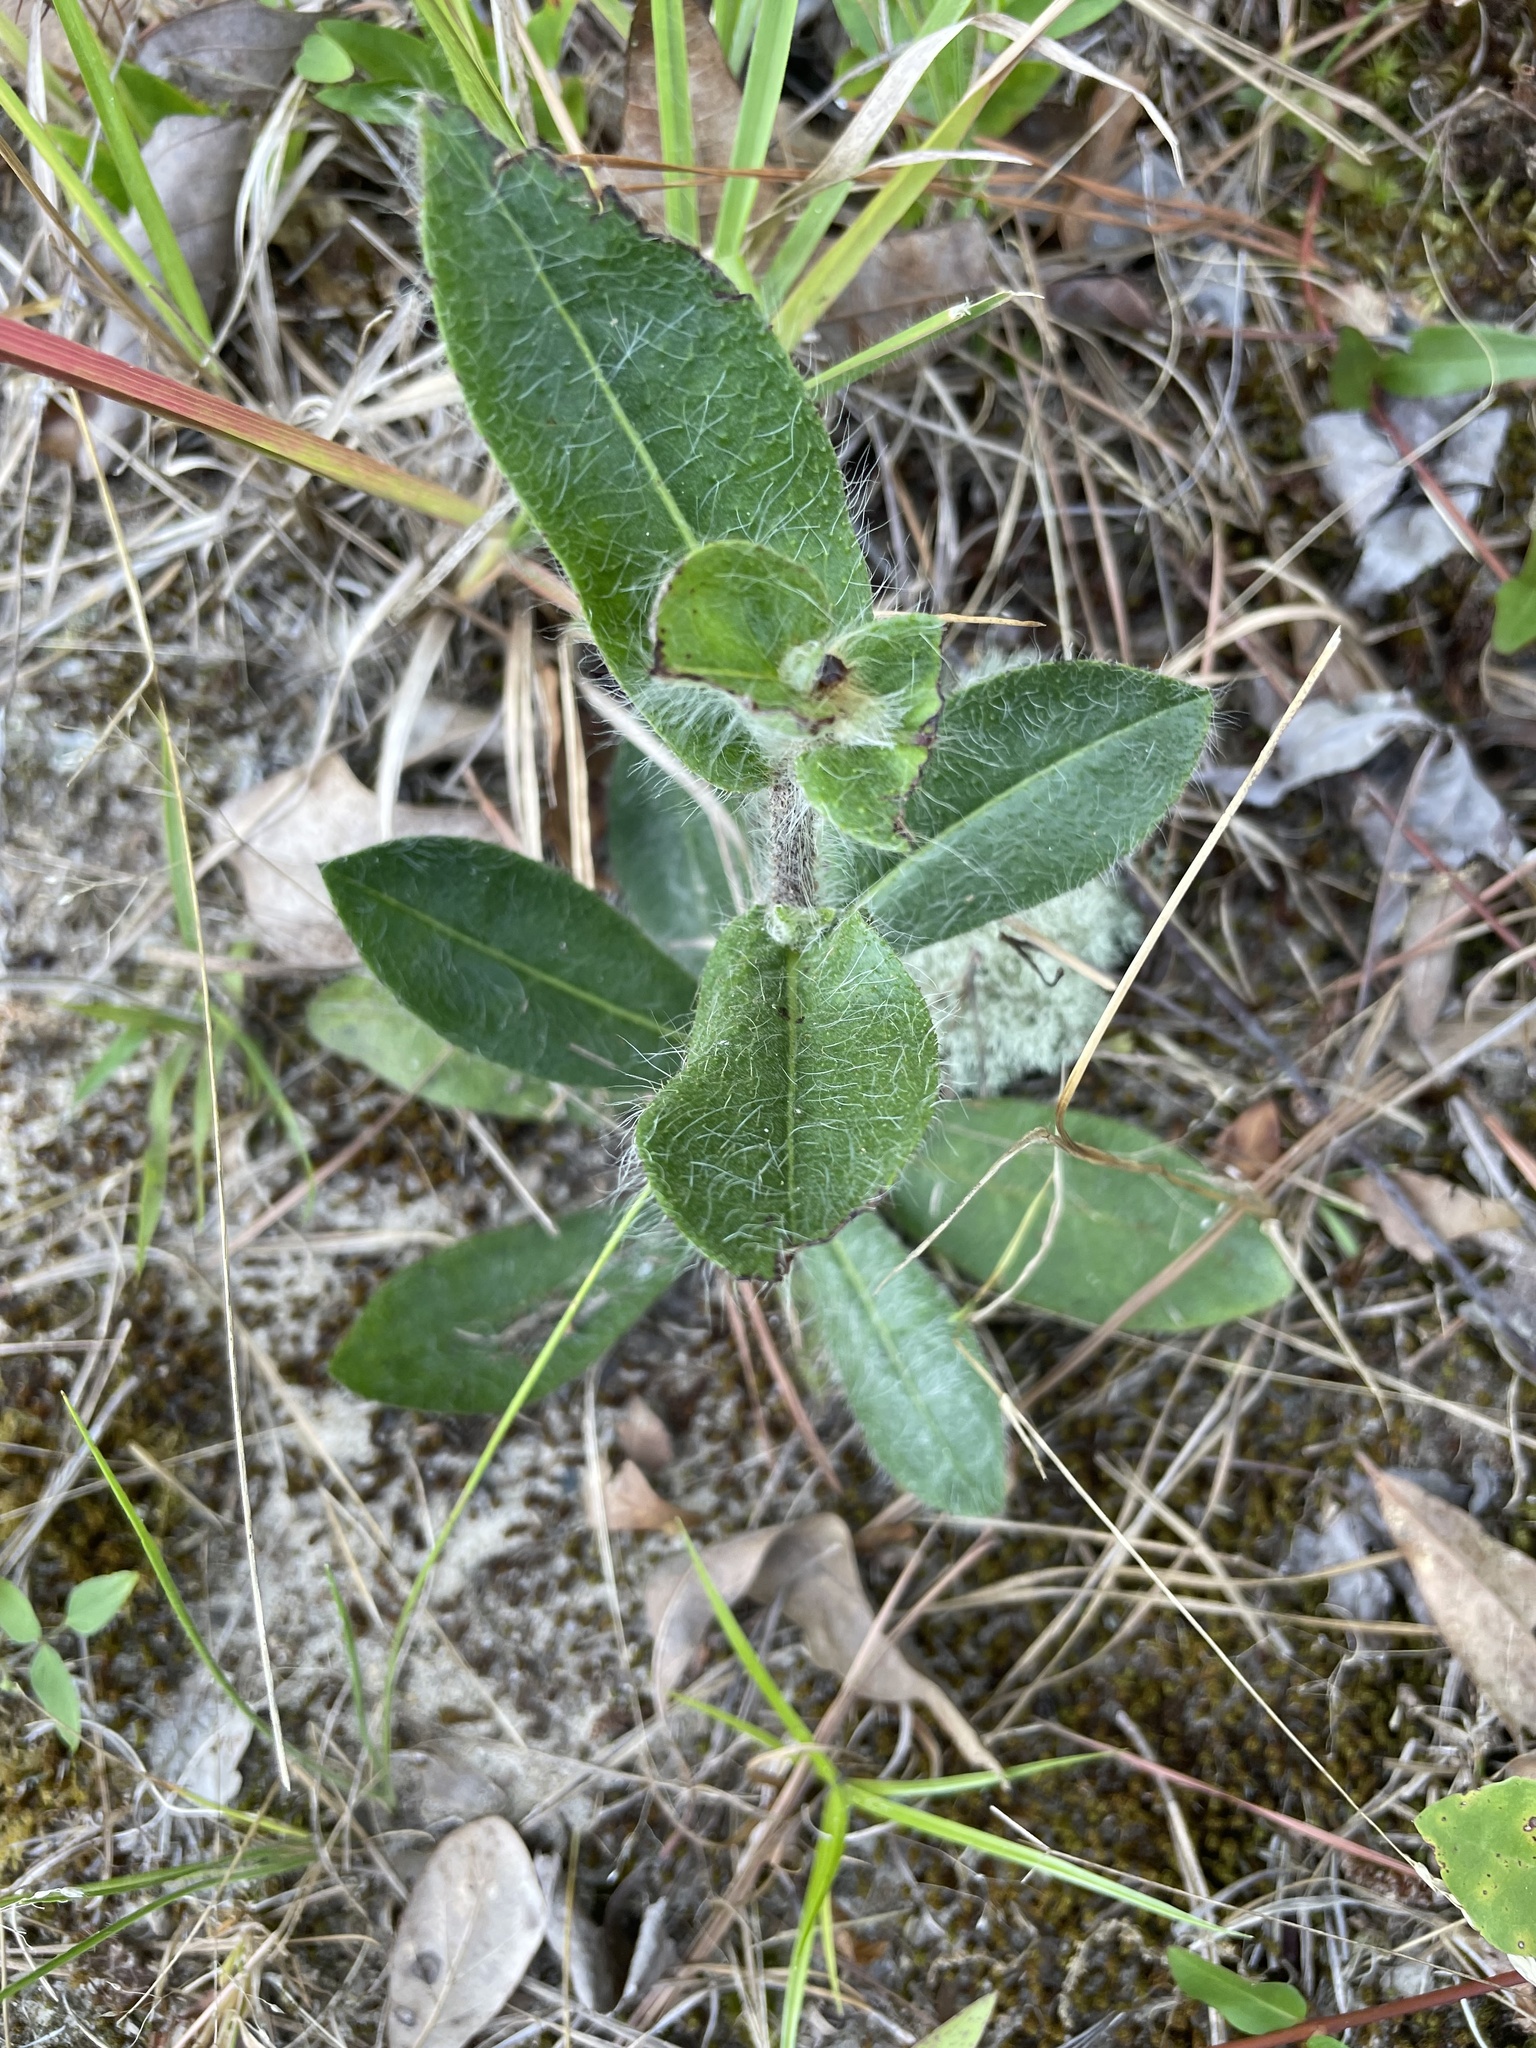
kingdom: Plantae
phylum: Tracheophyta
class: Magnoliopsida
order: Asterales
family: Asteraceae
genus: Hieracium
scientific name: Hieracium gronovii
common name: Beaked hawkweed
